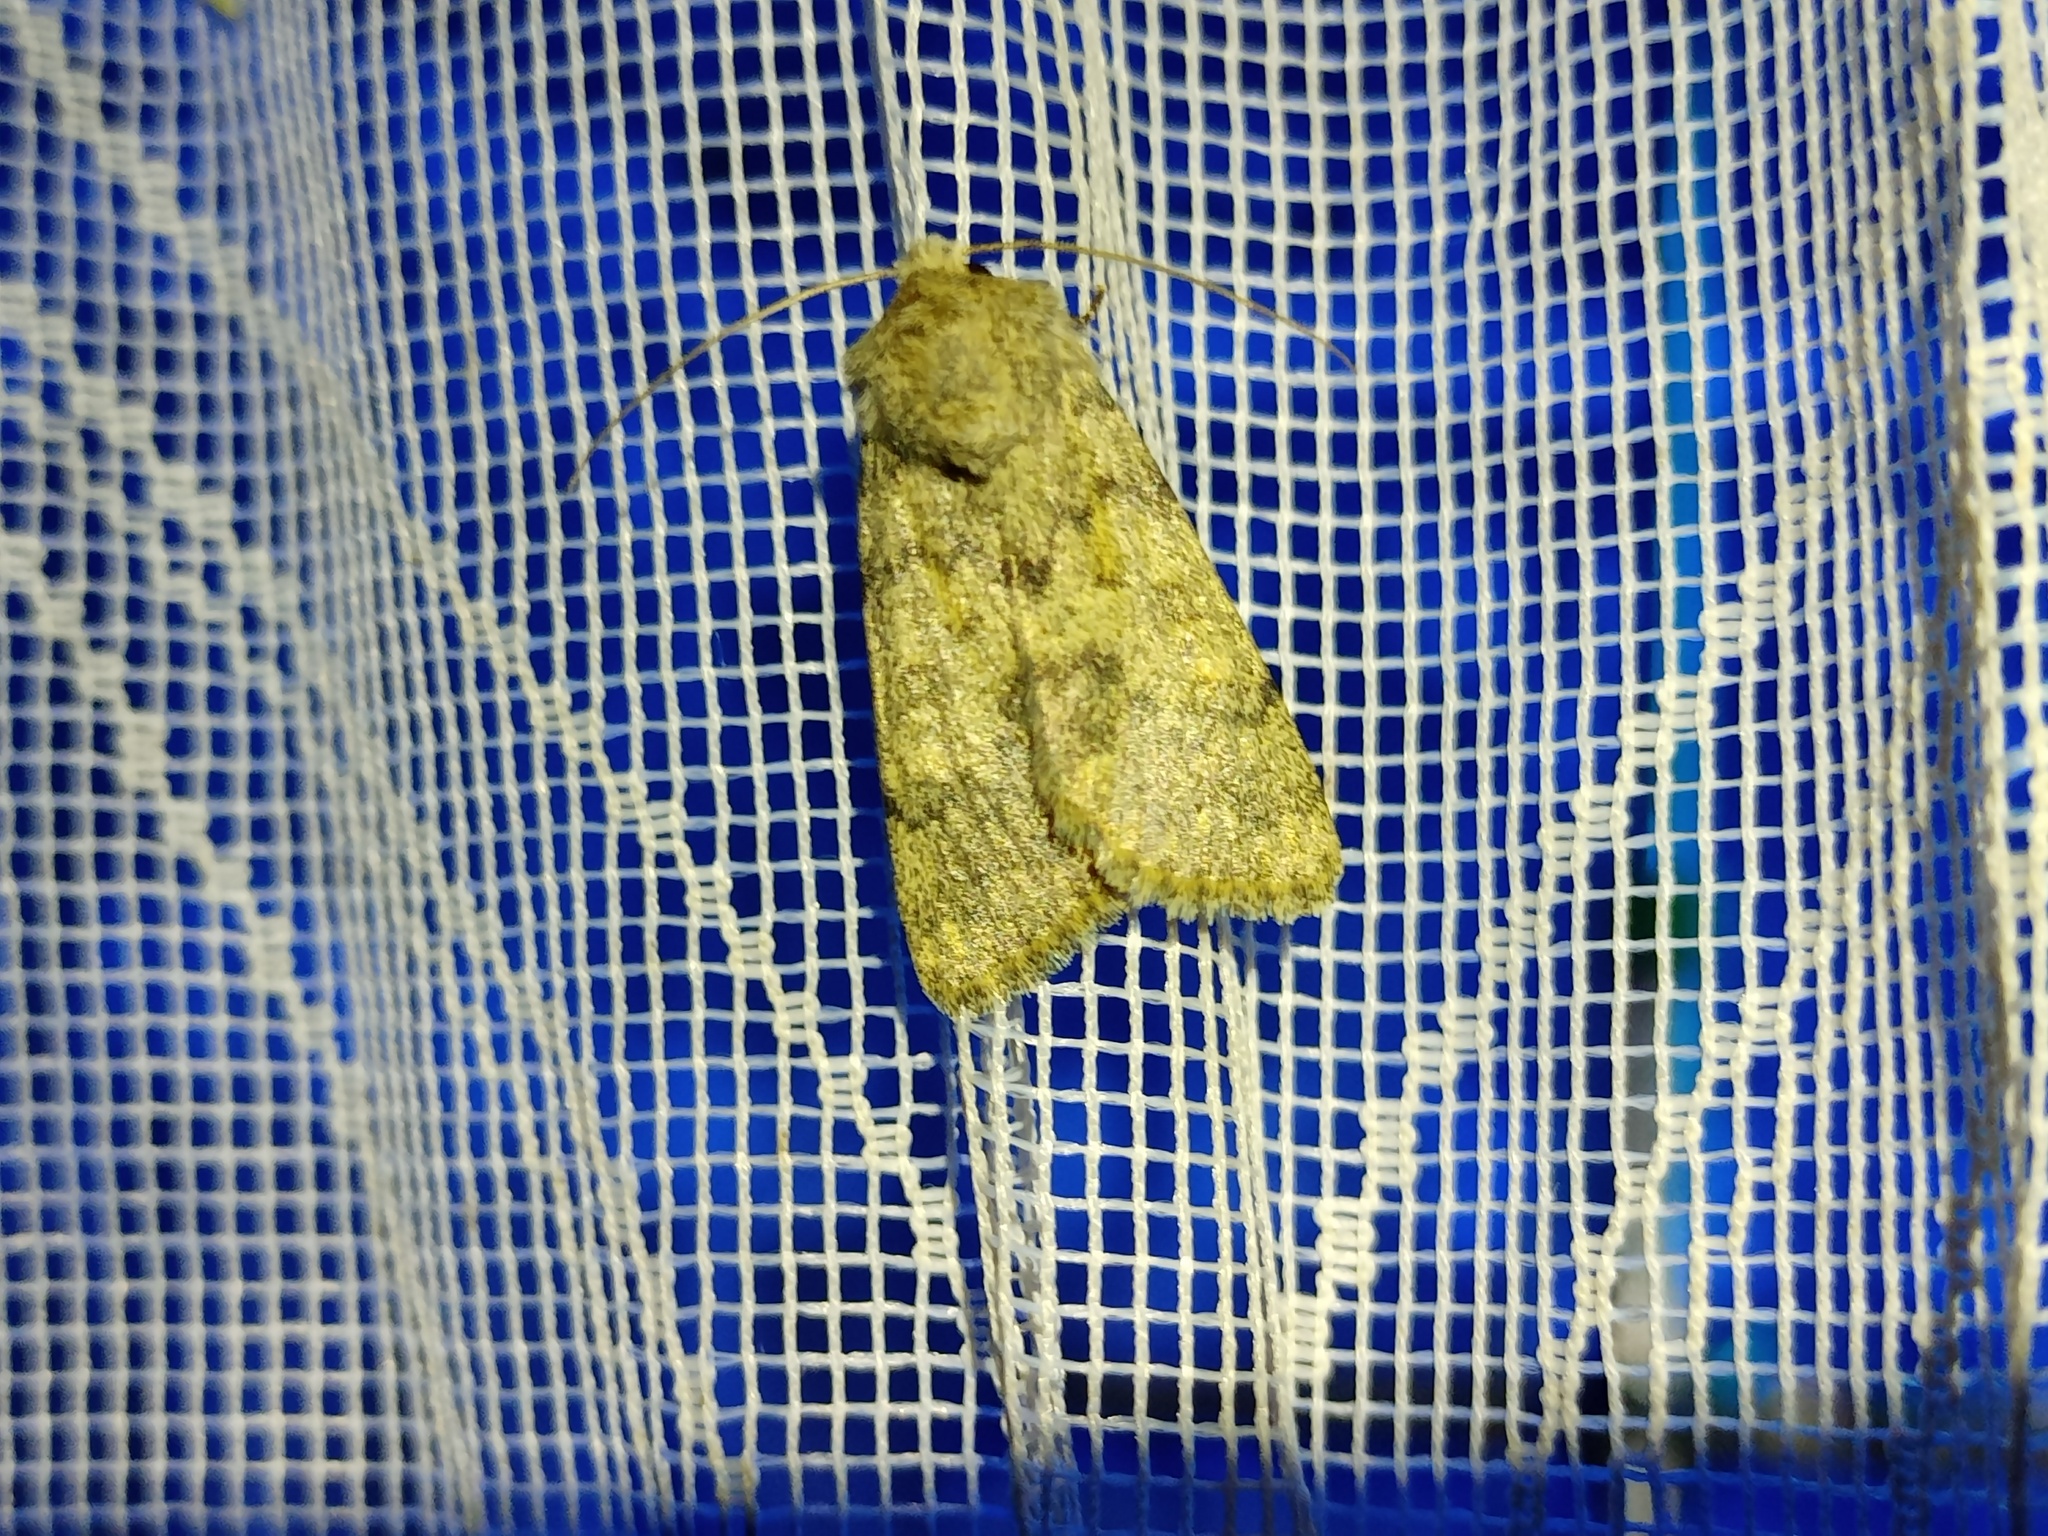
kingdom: Animalia
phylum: Arthropoda
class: Insecta
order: Lepidoptera
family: Noctuidae
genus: Dichagyris
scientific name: Dichagyris renigera
